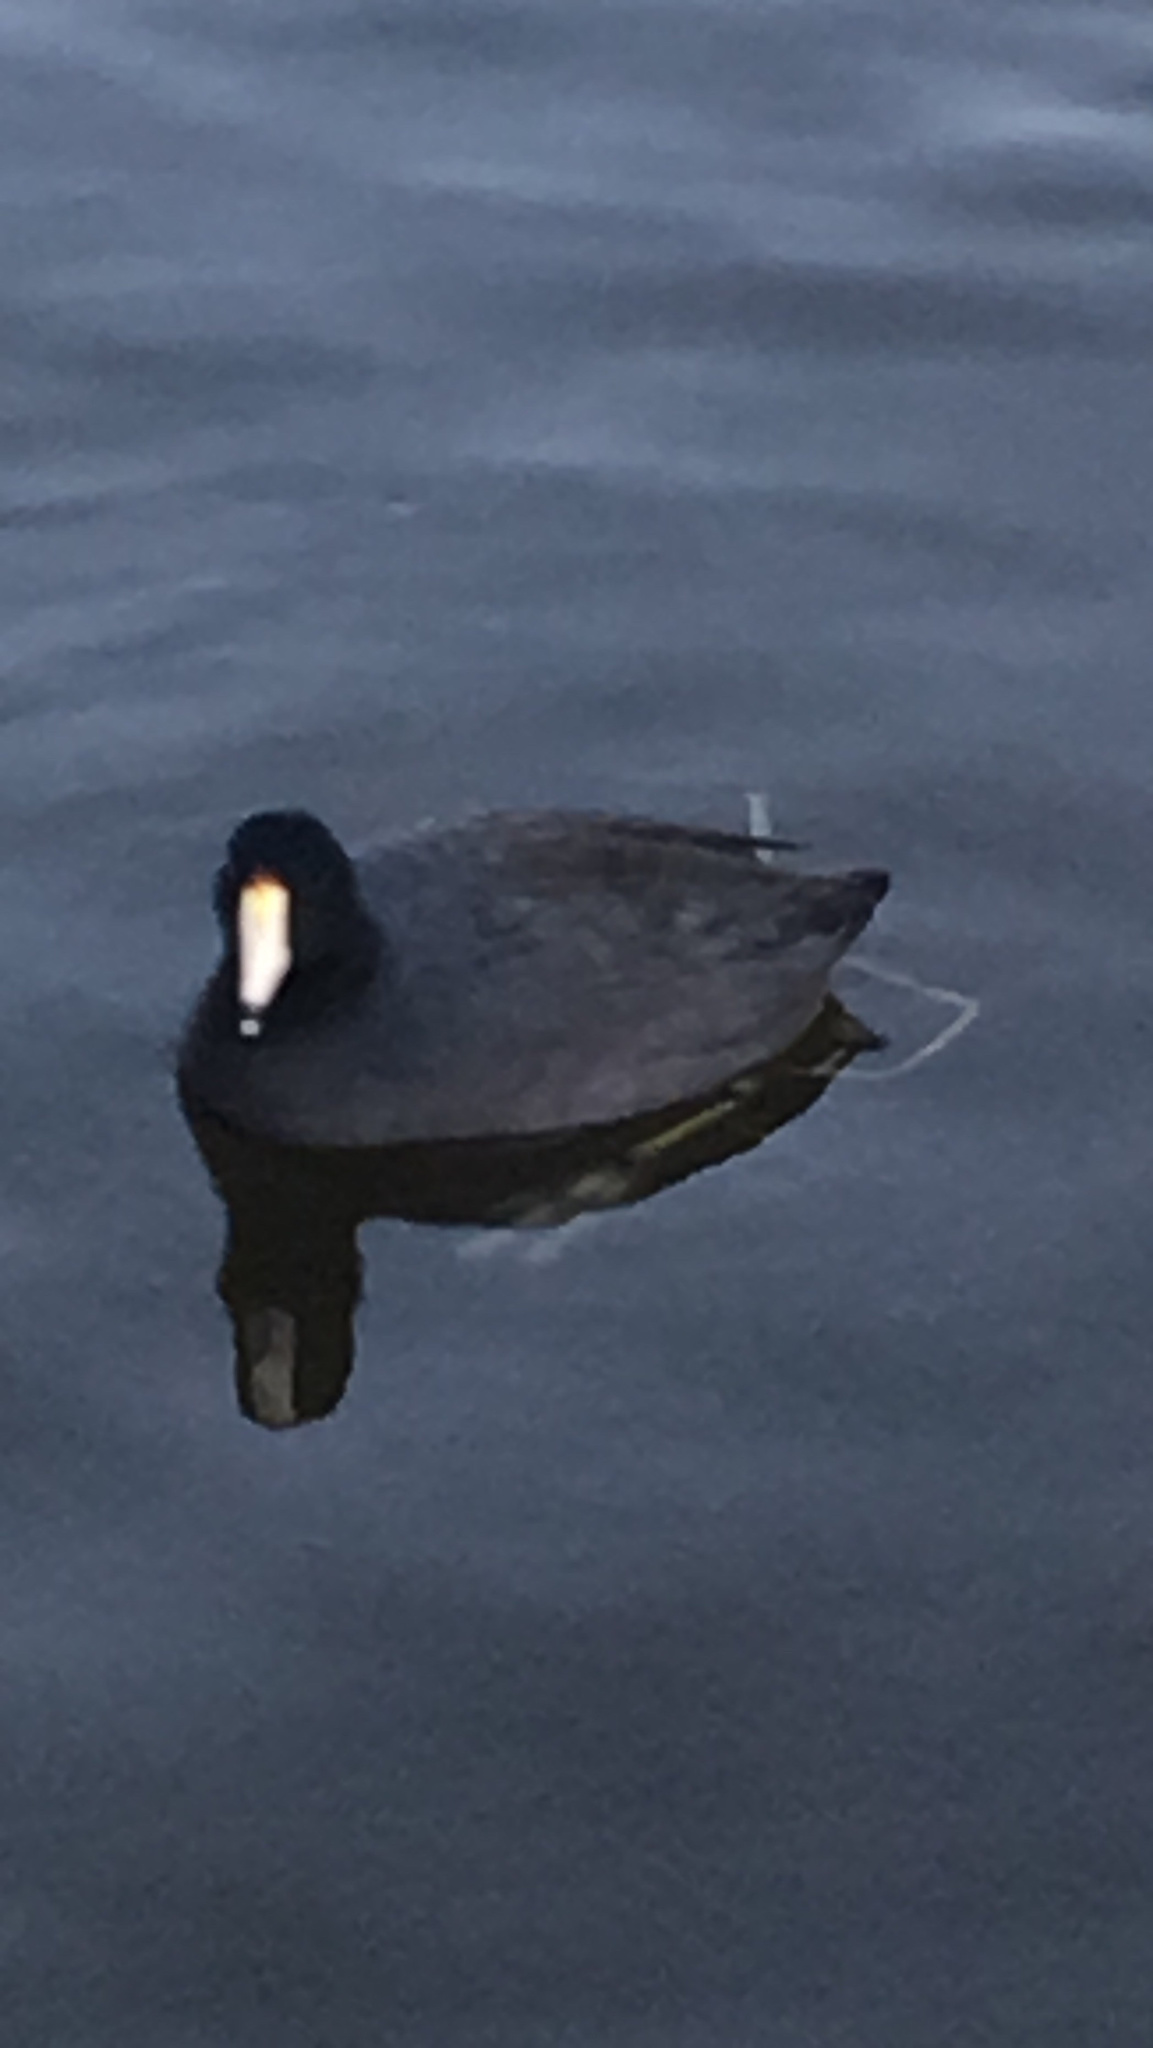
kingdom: Animalia
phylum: Chordata
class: Aves
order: Gruiformes
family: Rallidae
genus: Fulica
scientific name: Fulica americana
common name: American coot
